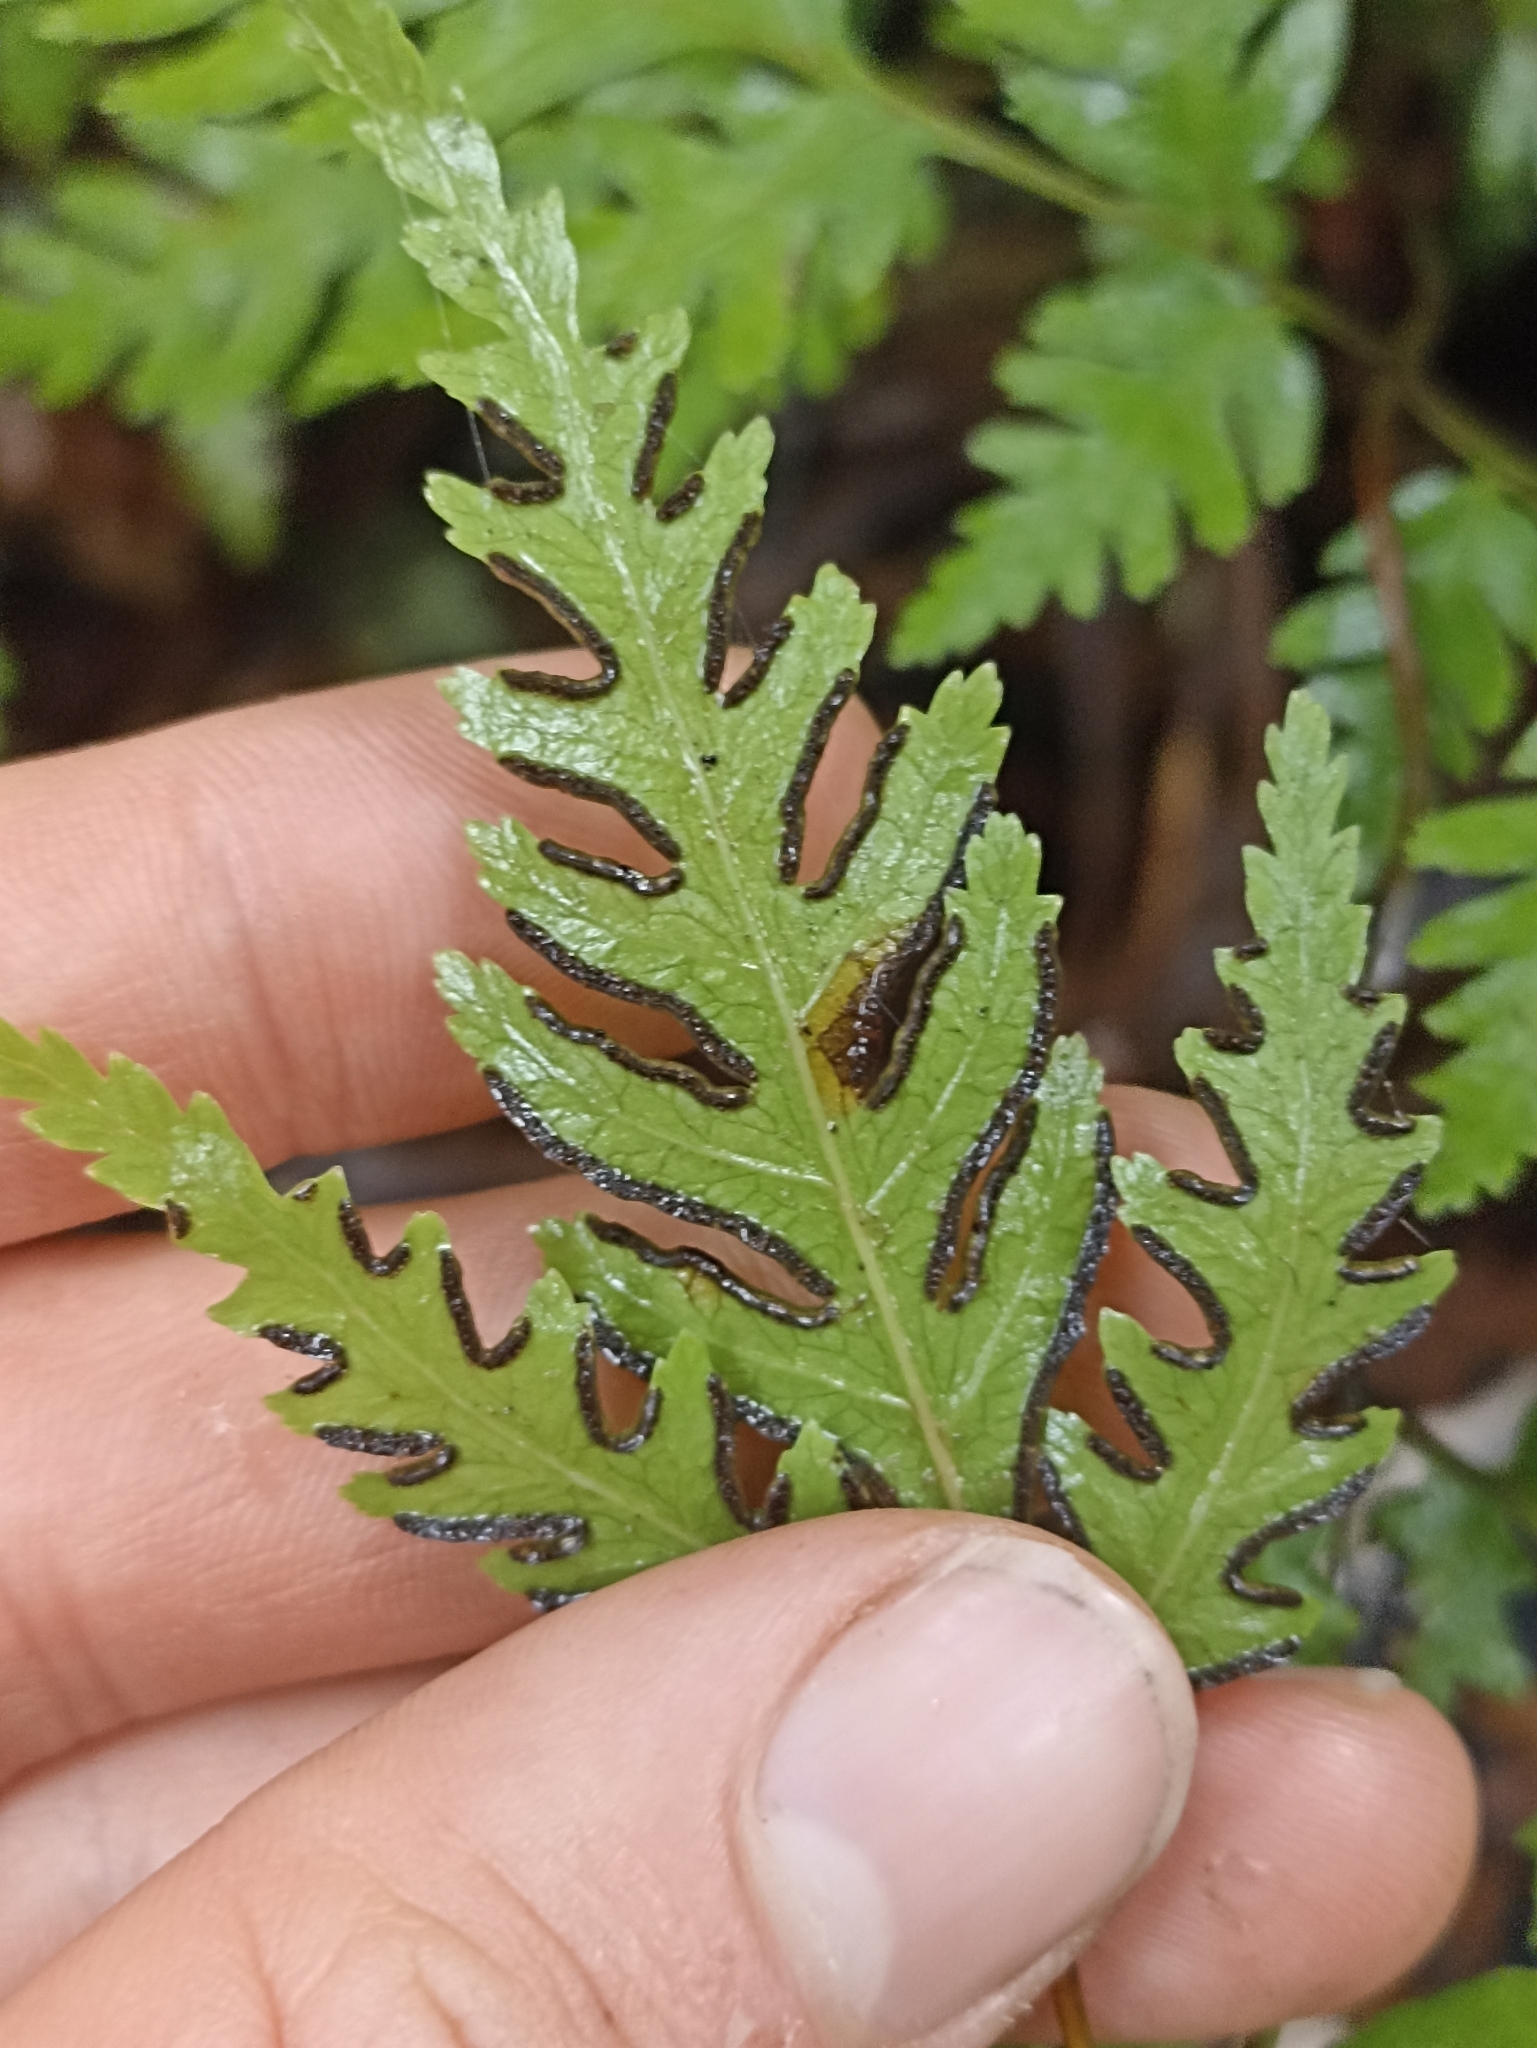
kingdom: Plantae
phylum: Tracheophyta
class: Polypodiopsida
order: Polypodiales
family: Pteridaceae
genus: Pteris
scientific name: Pteris macilenta
